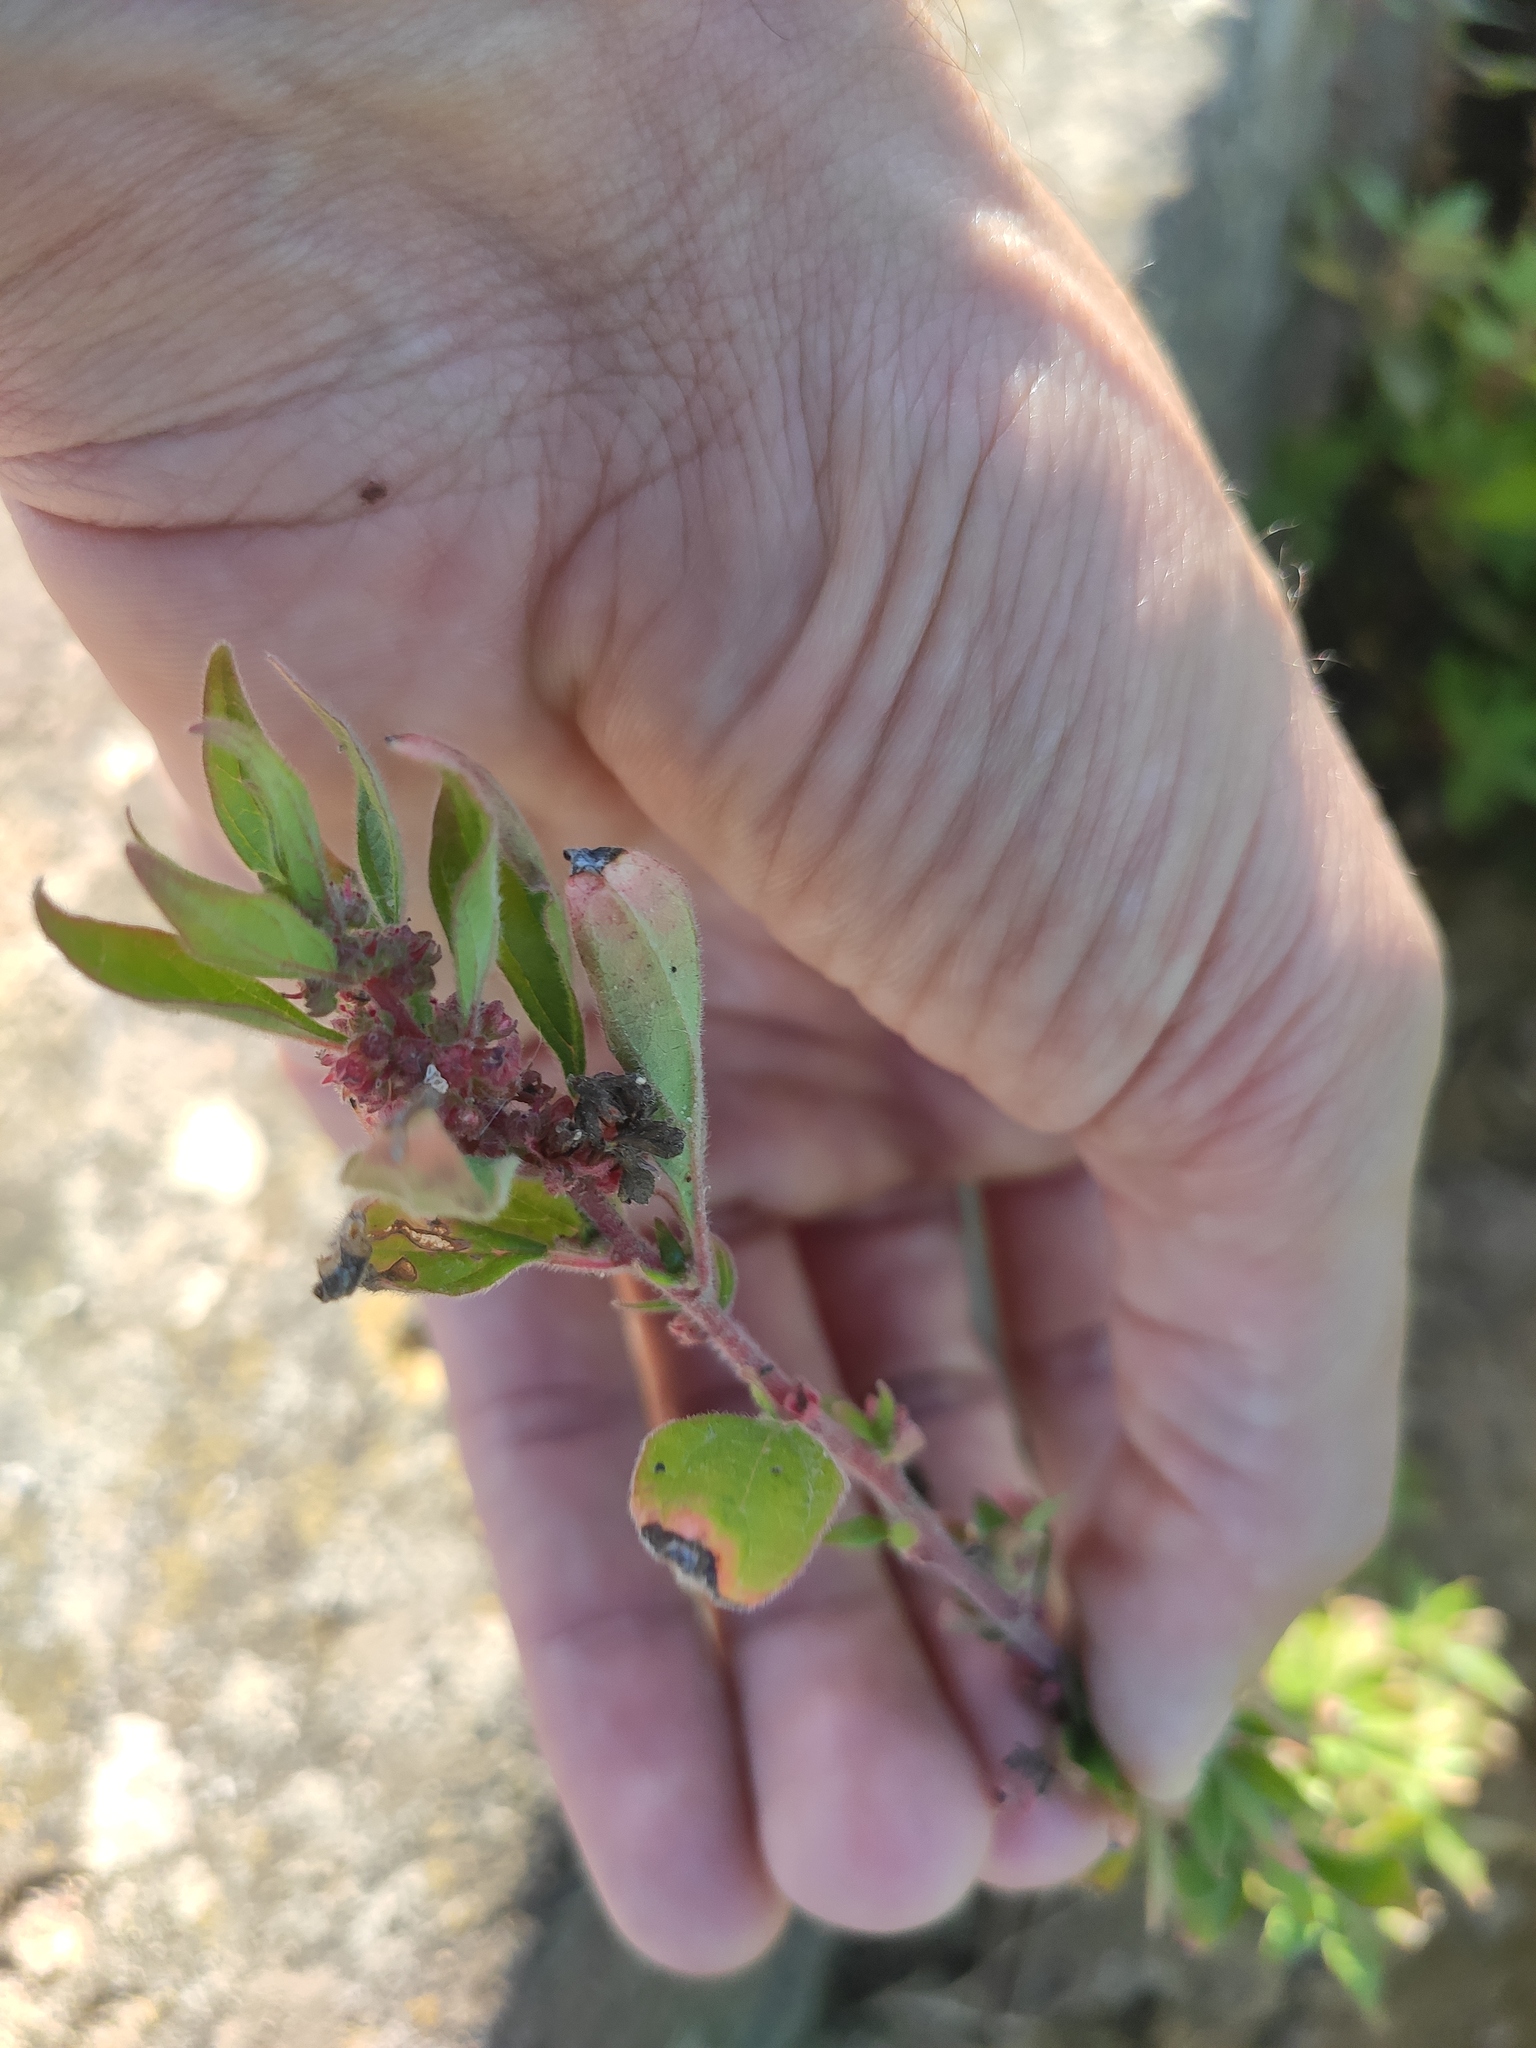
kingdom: Plantae
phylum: Tracheophyta
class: Magnoliopsida
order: Rosales
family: Urticaceae
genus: Parietaria
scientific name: Parietaria judaica
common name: Pellitory-of-the-wall
